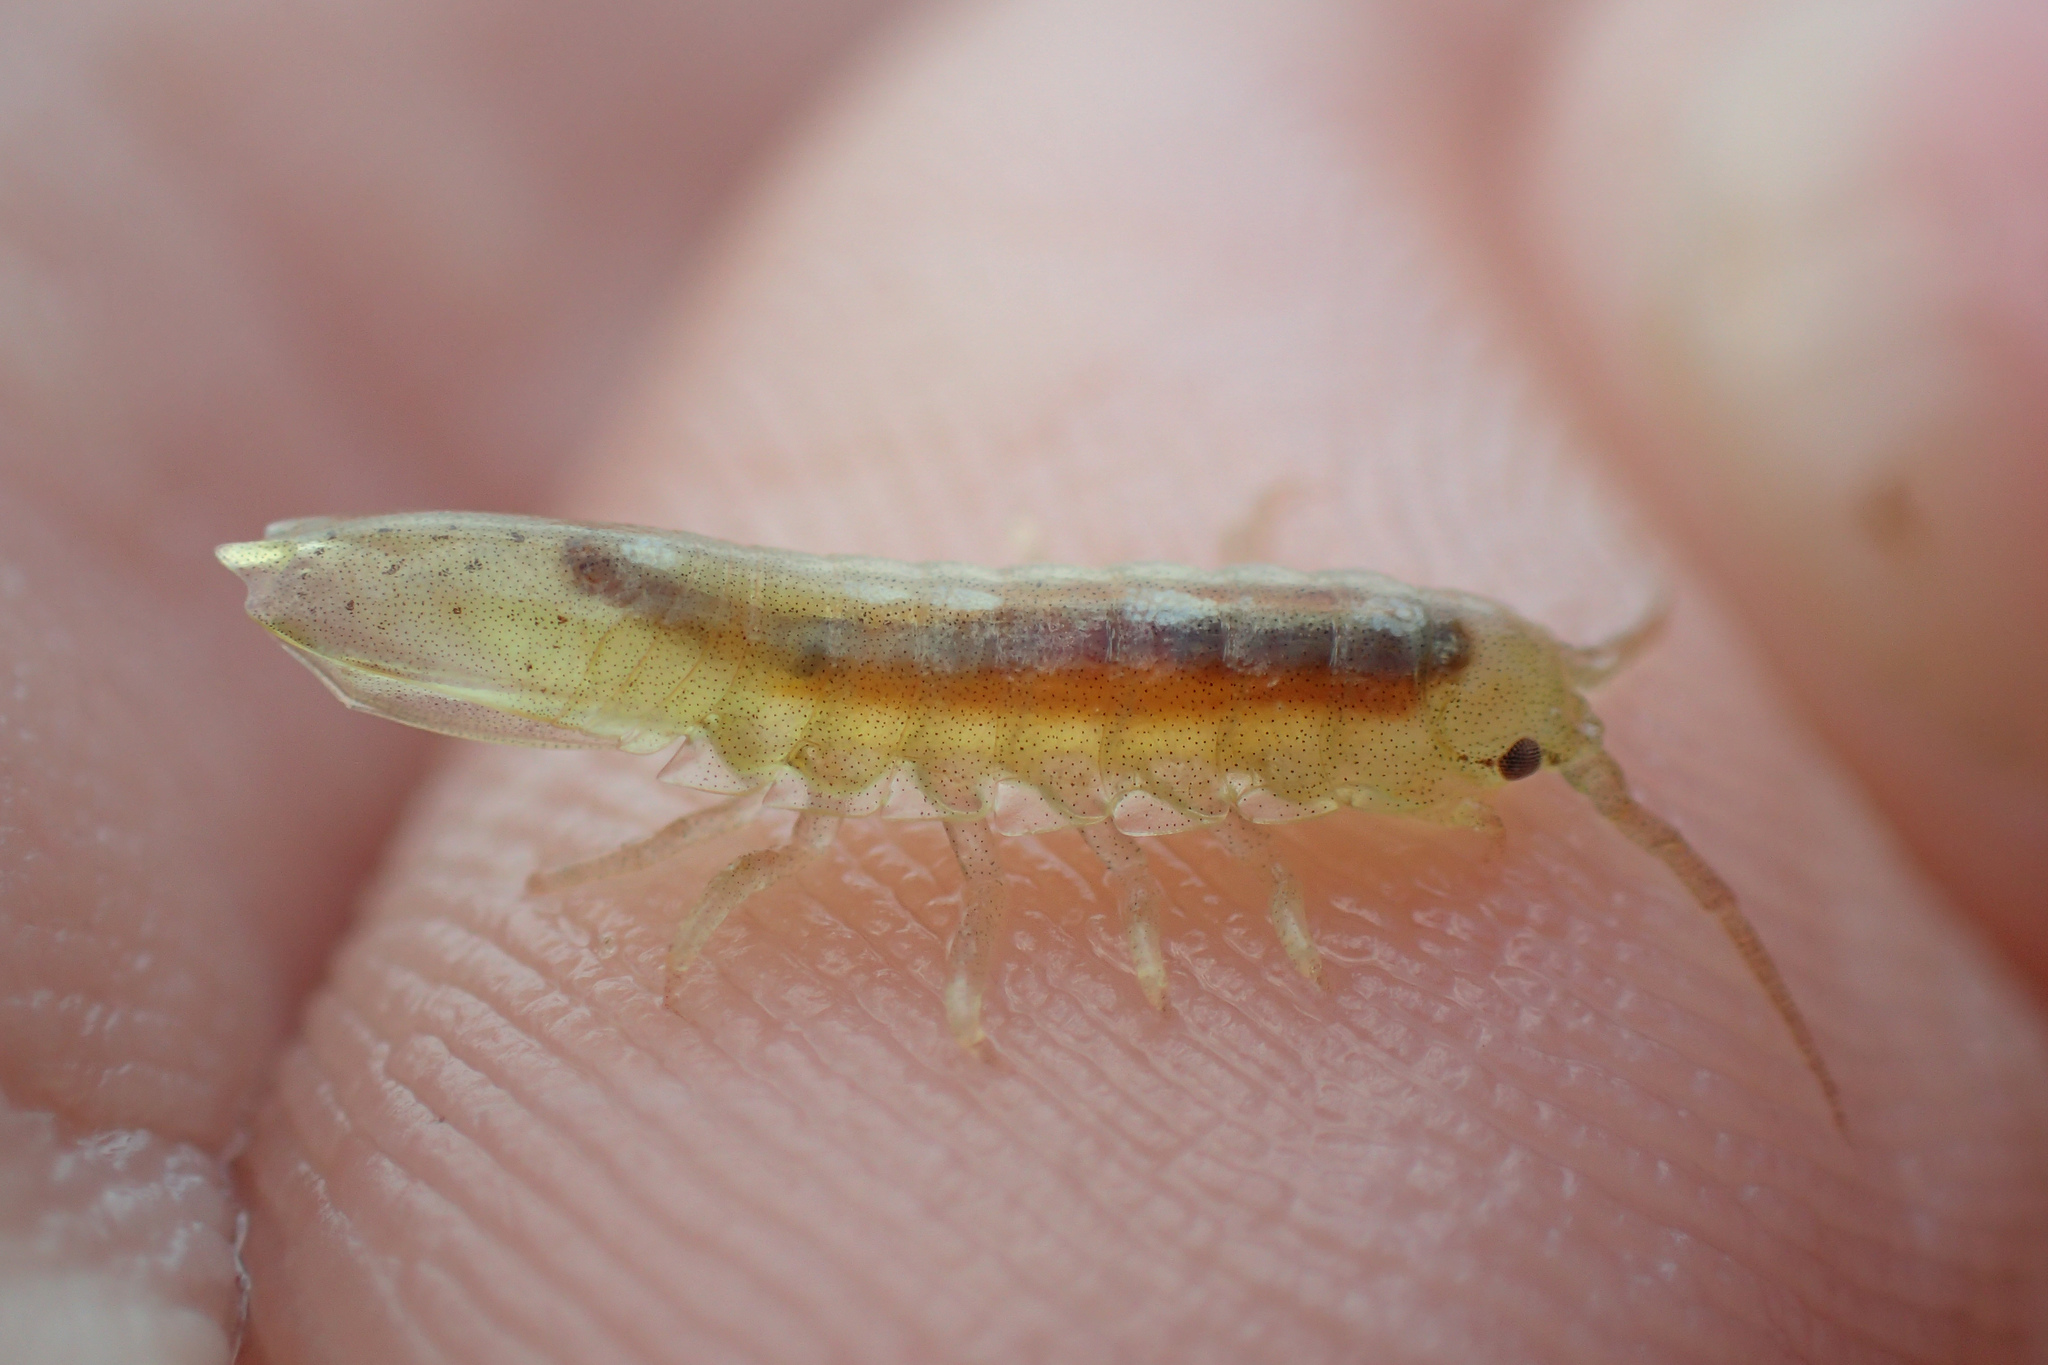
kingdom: Animalia
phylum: Arthropoda
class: Malacostraca
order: Isopoda
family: Idoteidae
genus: Idotea
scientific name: Idotea balthica
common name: Baltic isopod
